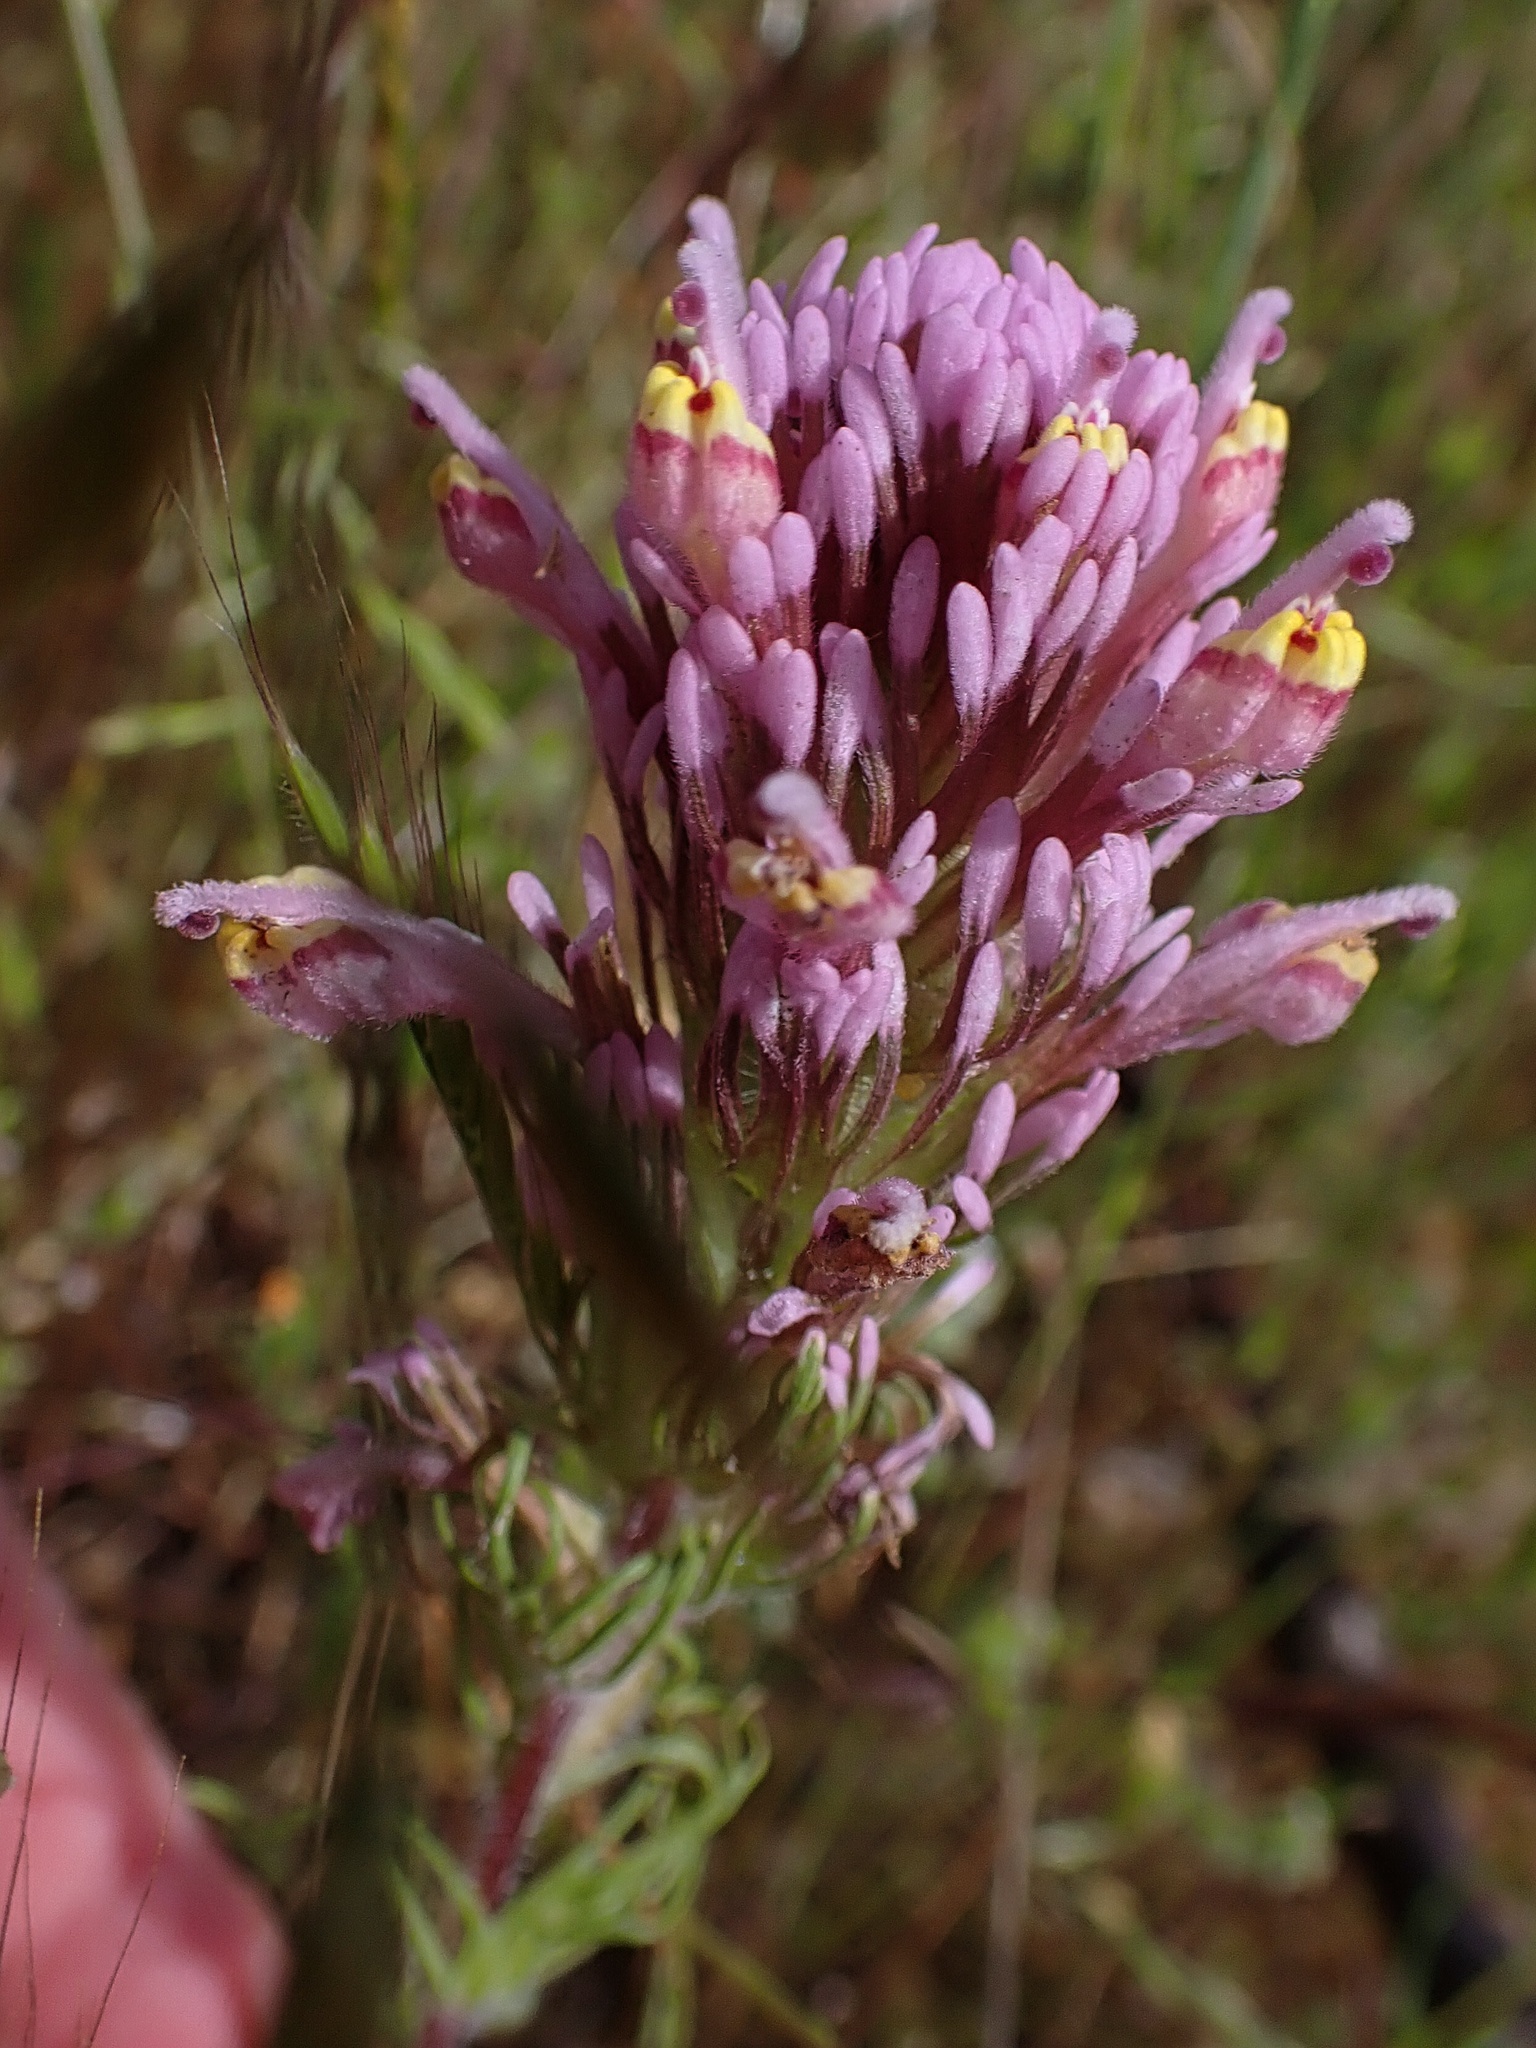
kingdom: Plantae
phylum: Tracheophyta
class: Magnoliopsida
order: Lamiales
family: Orobanchaceae
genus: Castilleja
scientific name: Castilleja exserta
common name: Purple owl-clover
